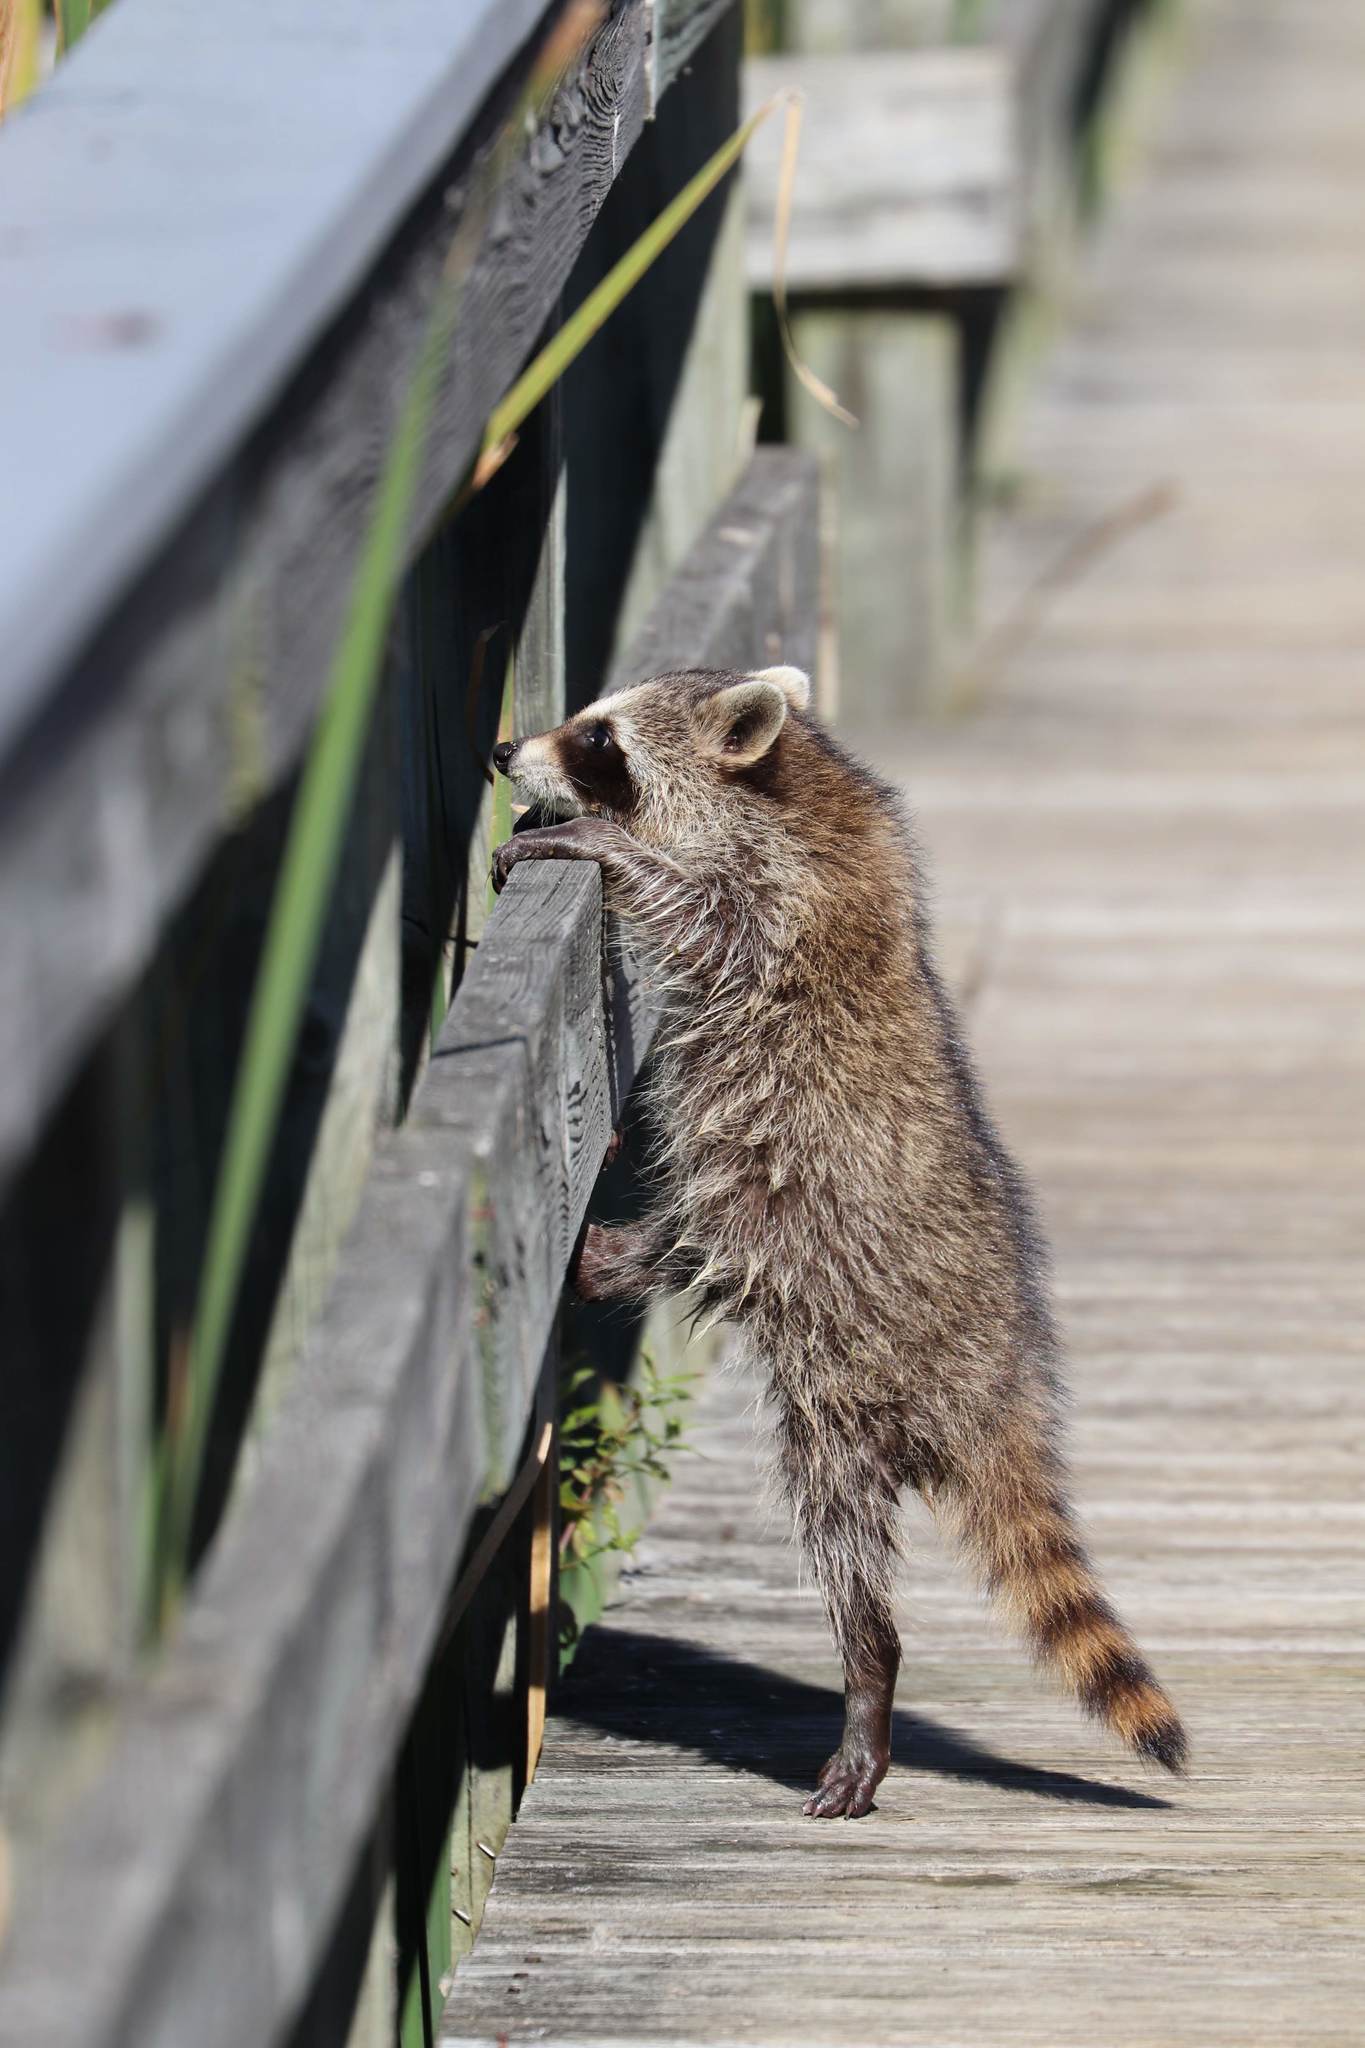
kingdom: Animalia
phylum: Chordata
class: Mammalia
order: Carnivora
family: Procyonidae
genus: Procyon
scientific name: Procyon lotor
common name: Raccoon
